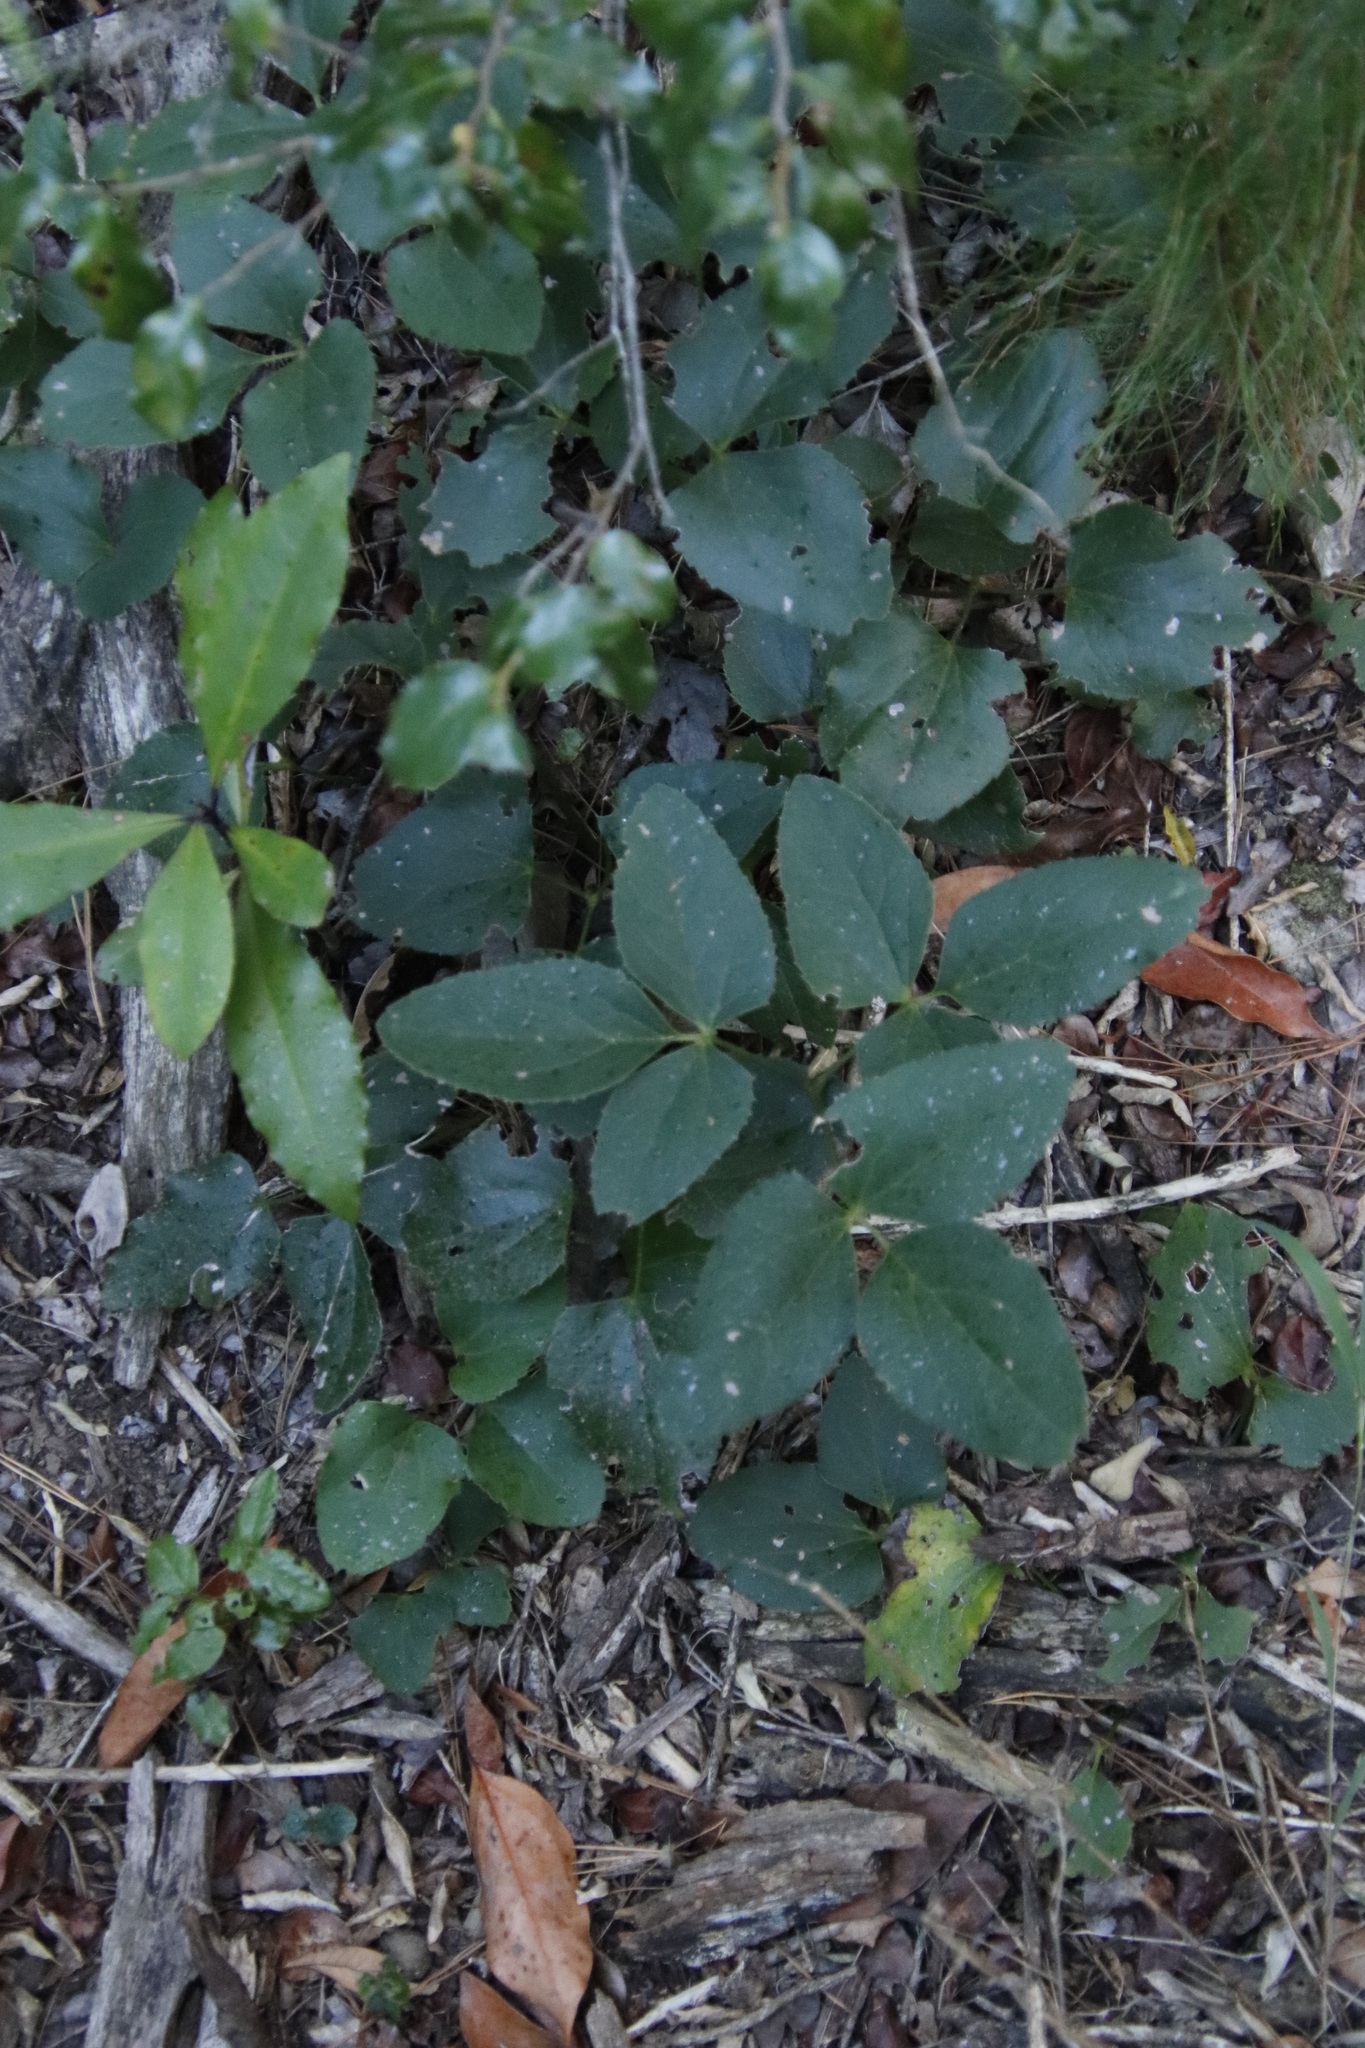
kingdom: Plantae
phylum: Tracheophyta
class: Magnoliopsida
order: Ranunculales
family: Ranunculaceae
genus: Knowltonia
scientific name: Knowltonia vesicatoria
